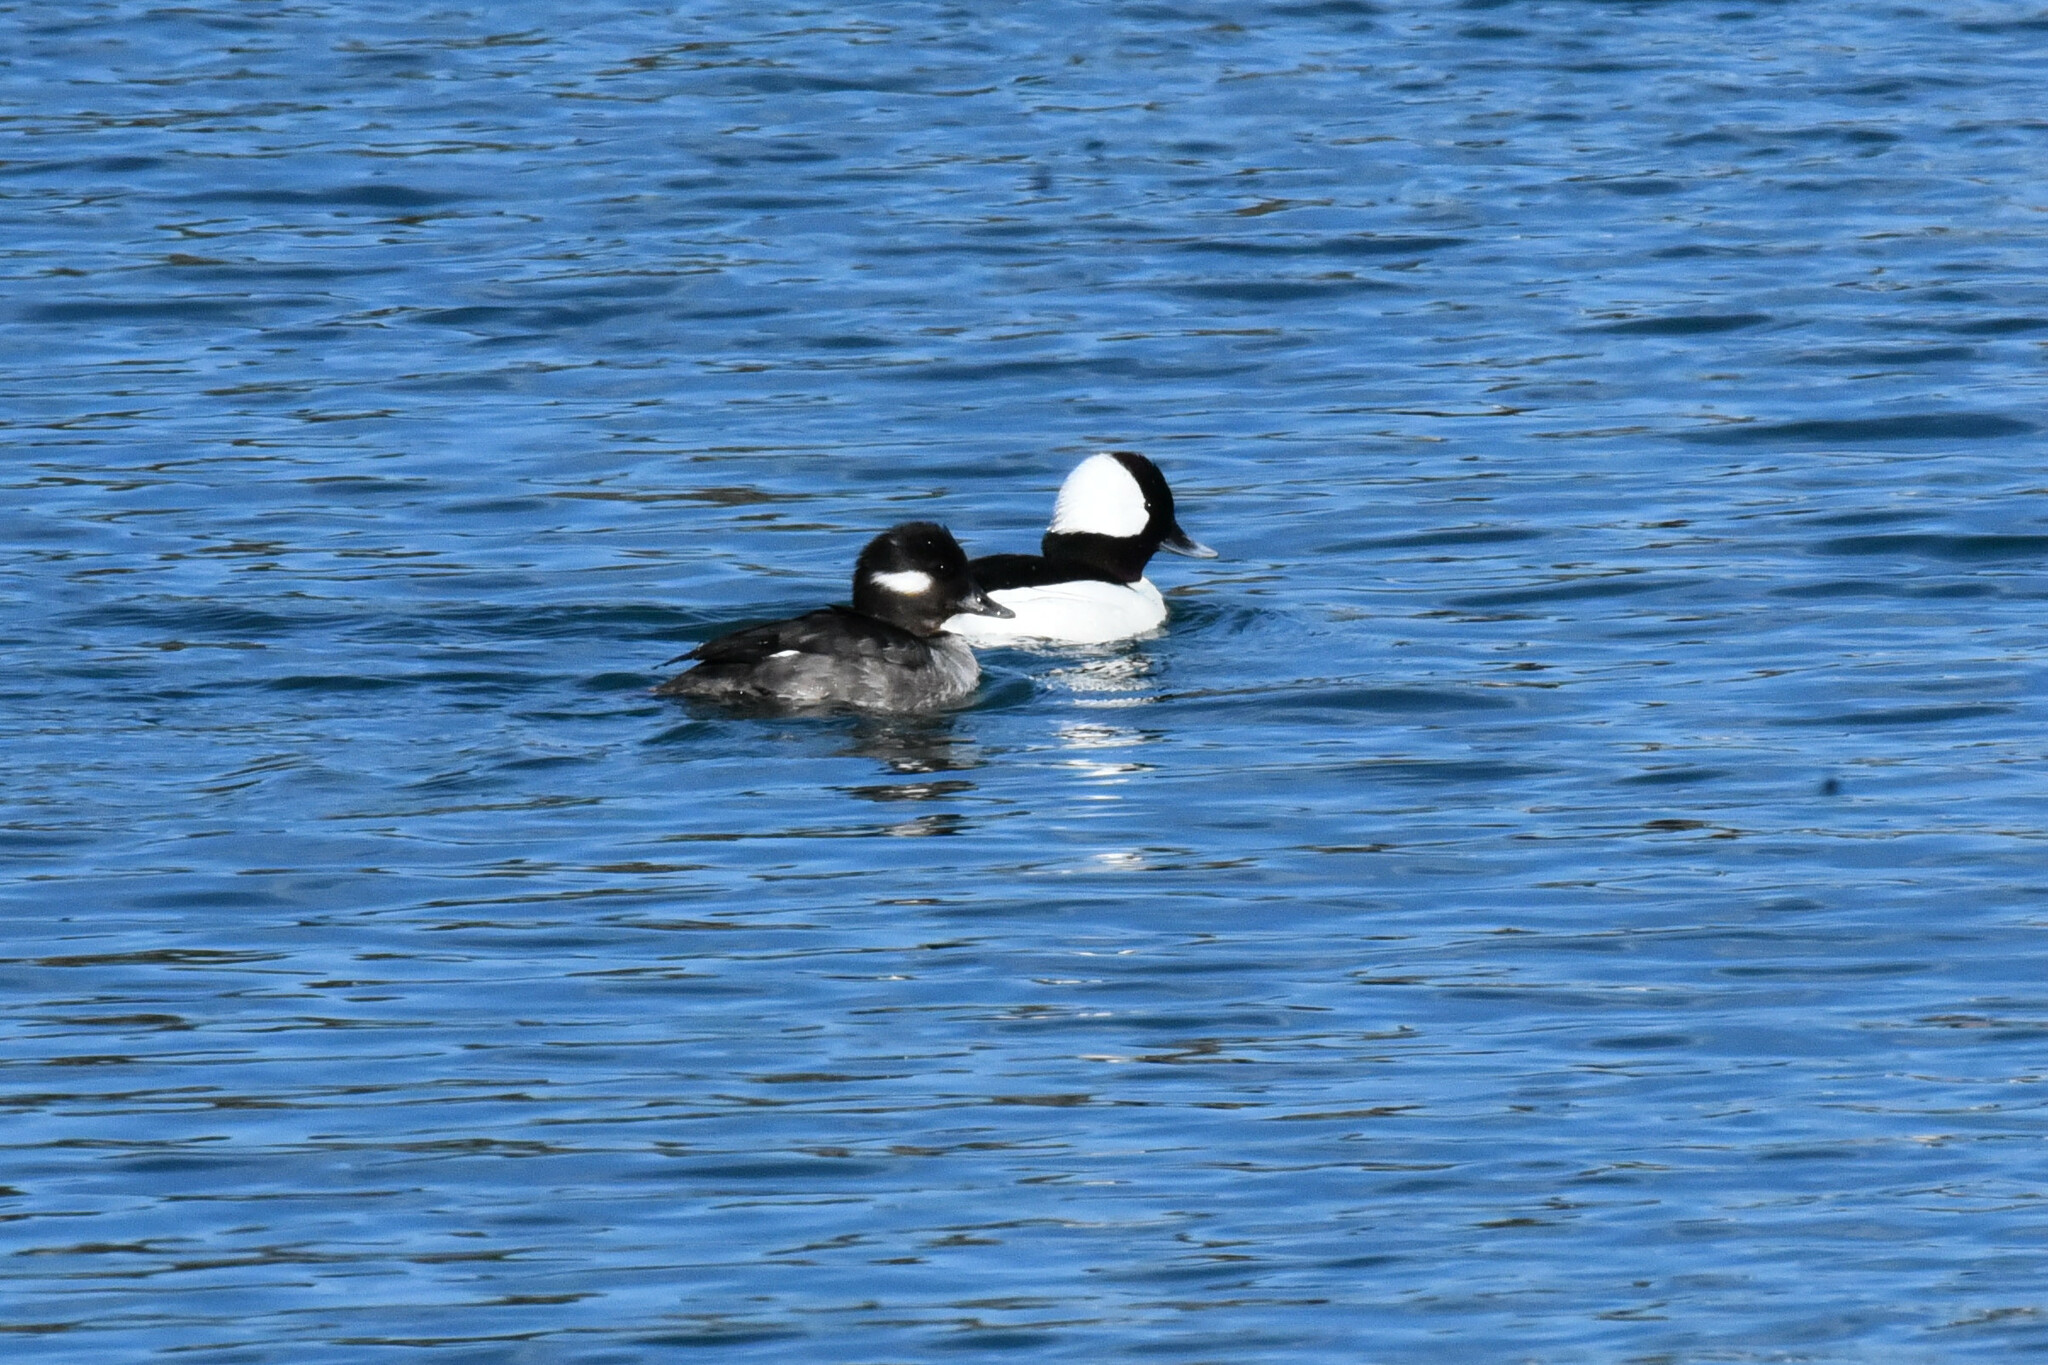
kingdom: Animalia
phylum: Chordata
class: Aves
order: Anseriformes
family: Anatidae
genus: Bucephala
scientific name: Bucephala albeola
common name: Bufflehead
